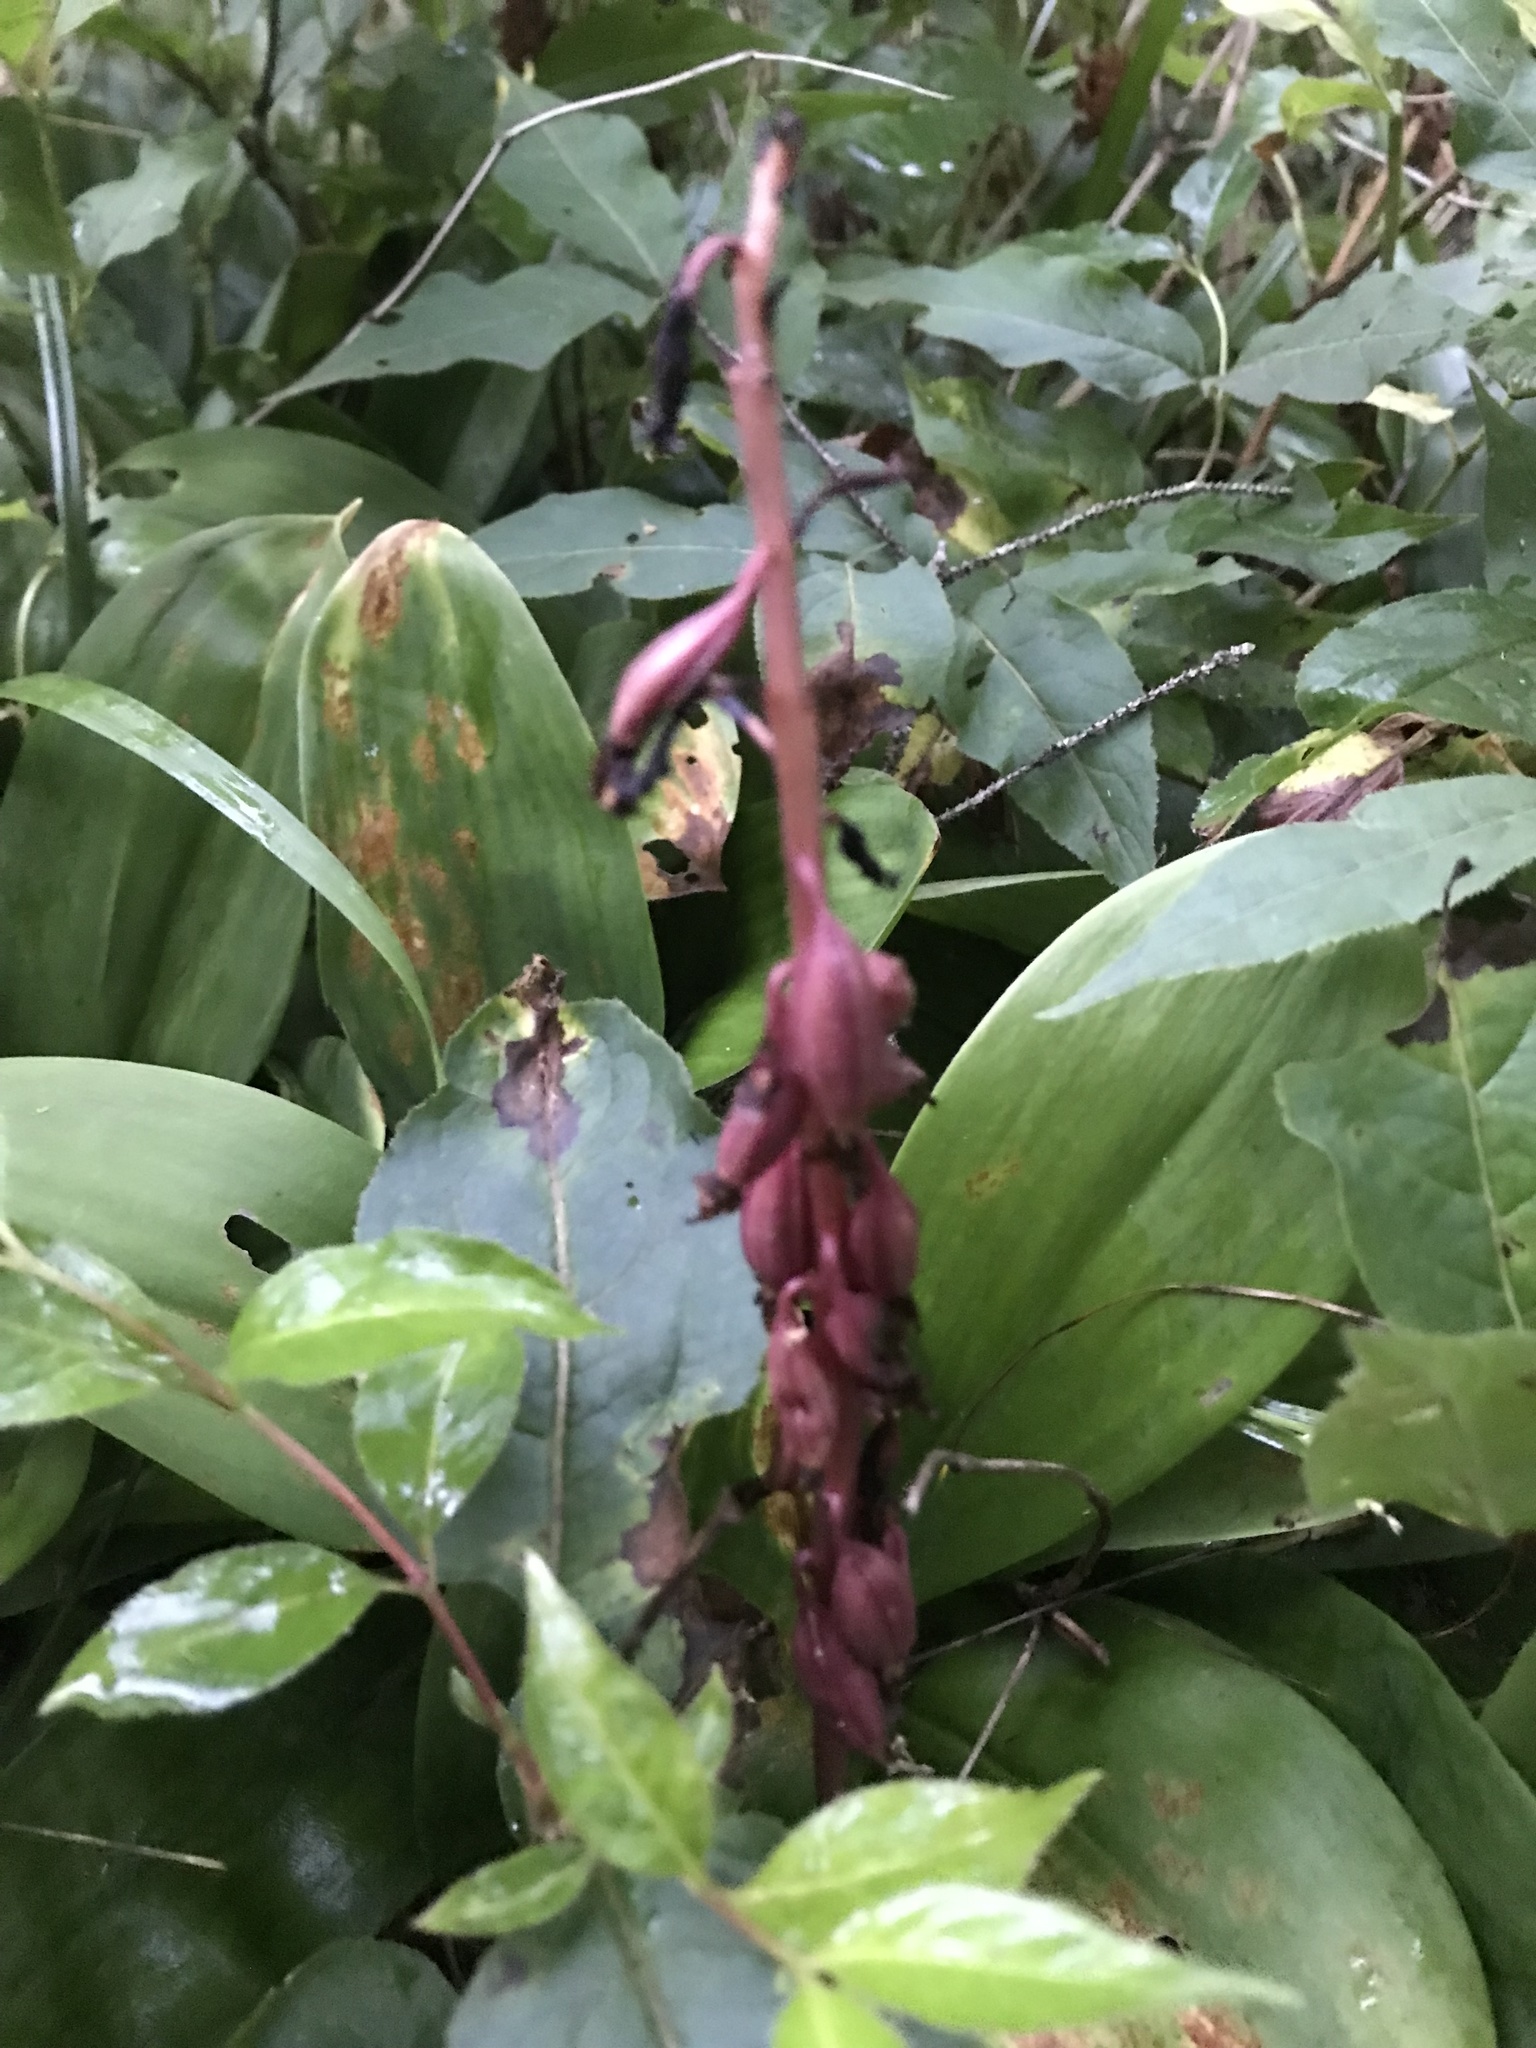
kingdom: Plantae
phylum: Tracheophyta
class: Liliopsida
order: Asparagales
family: Orchidaceae
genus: Corallorhiza
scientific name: Corallorhiza maculata
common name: Spotted coralroot
